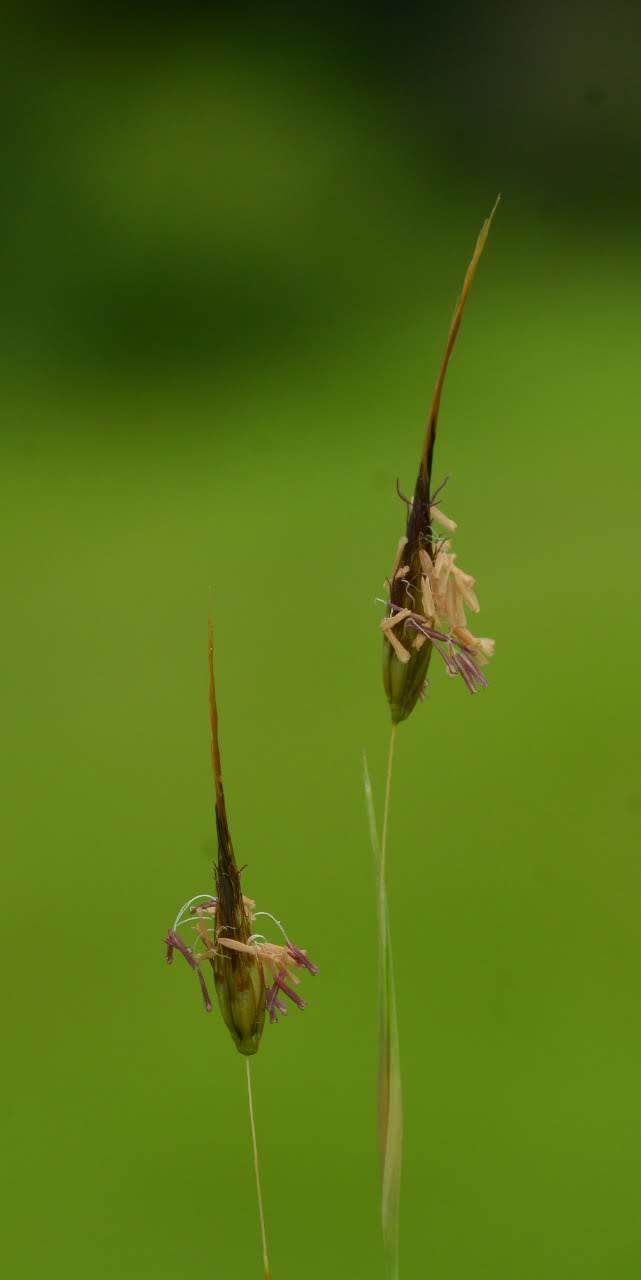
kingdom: Plantae
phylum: Tracheophyta
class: Liliopsida
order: Poales
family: Poaceae
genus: Lophopogon
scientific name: Lophopogon tridentatus
